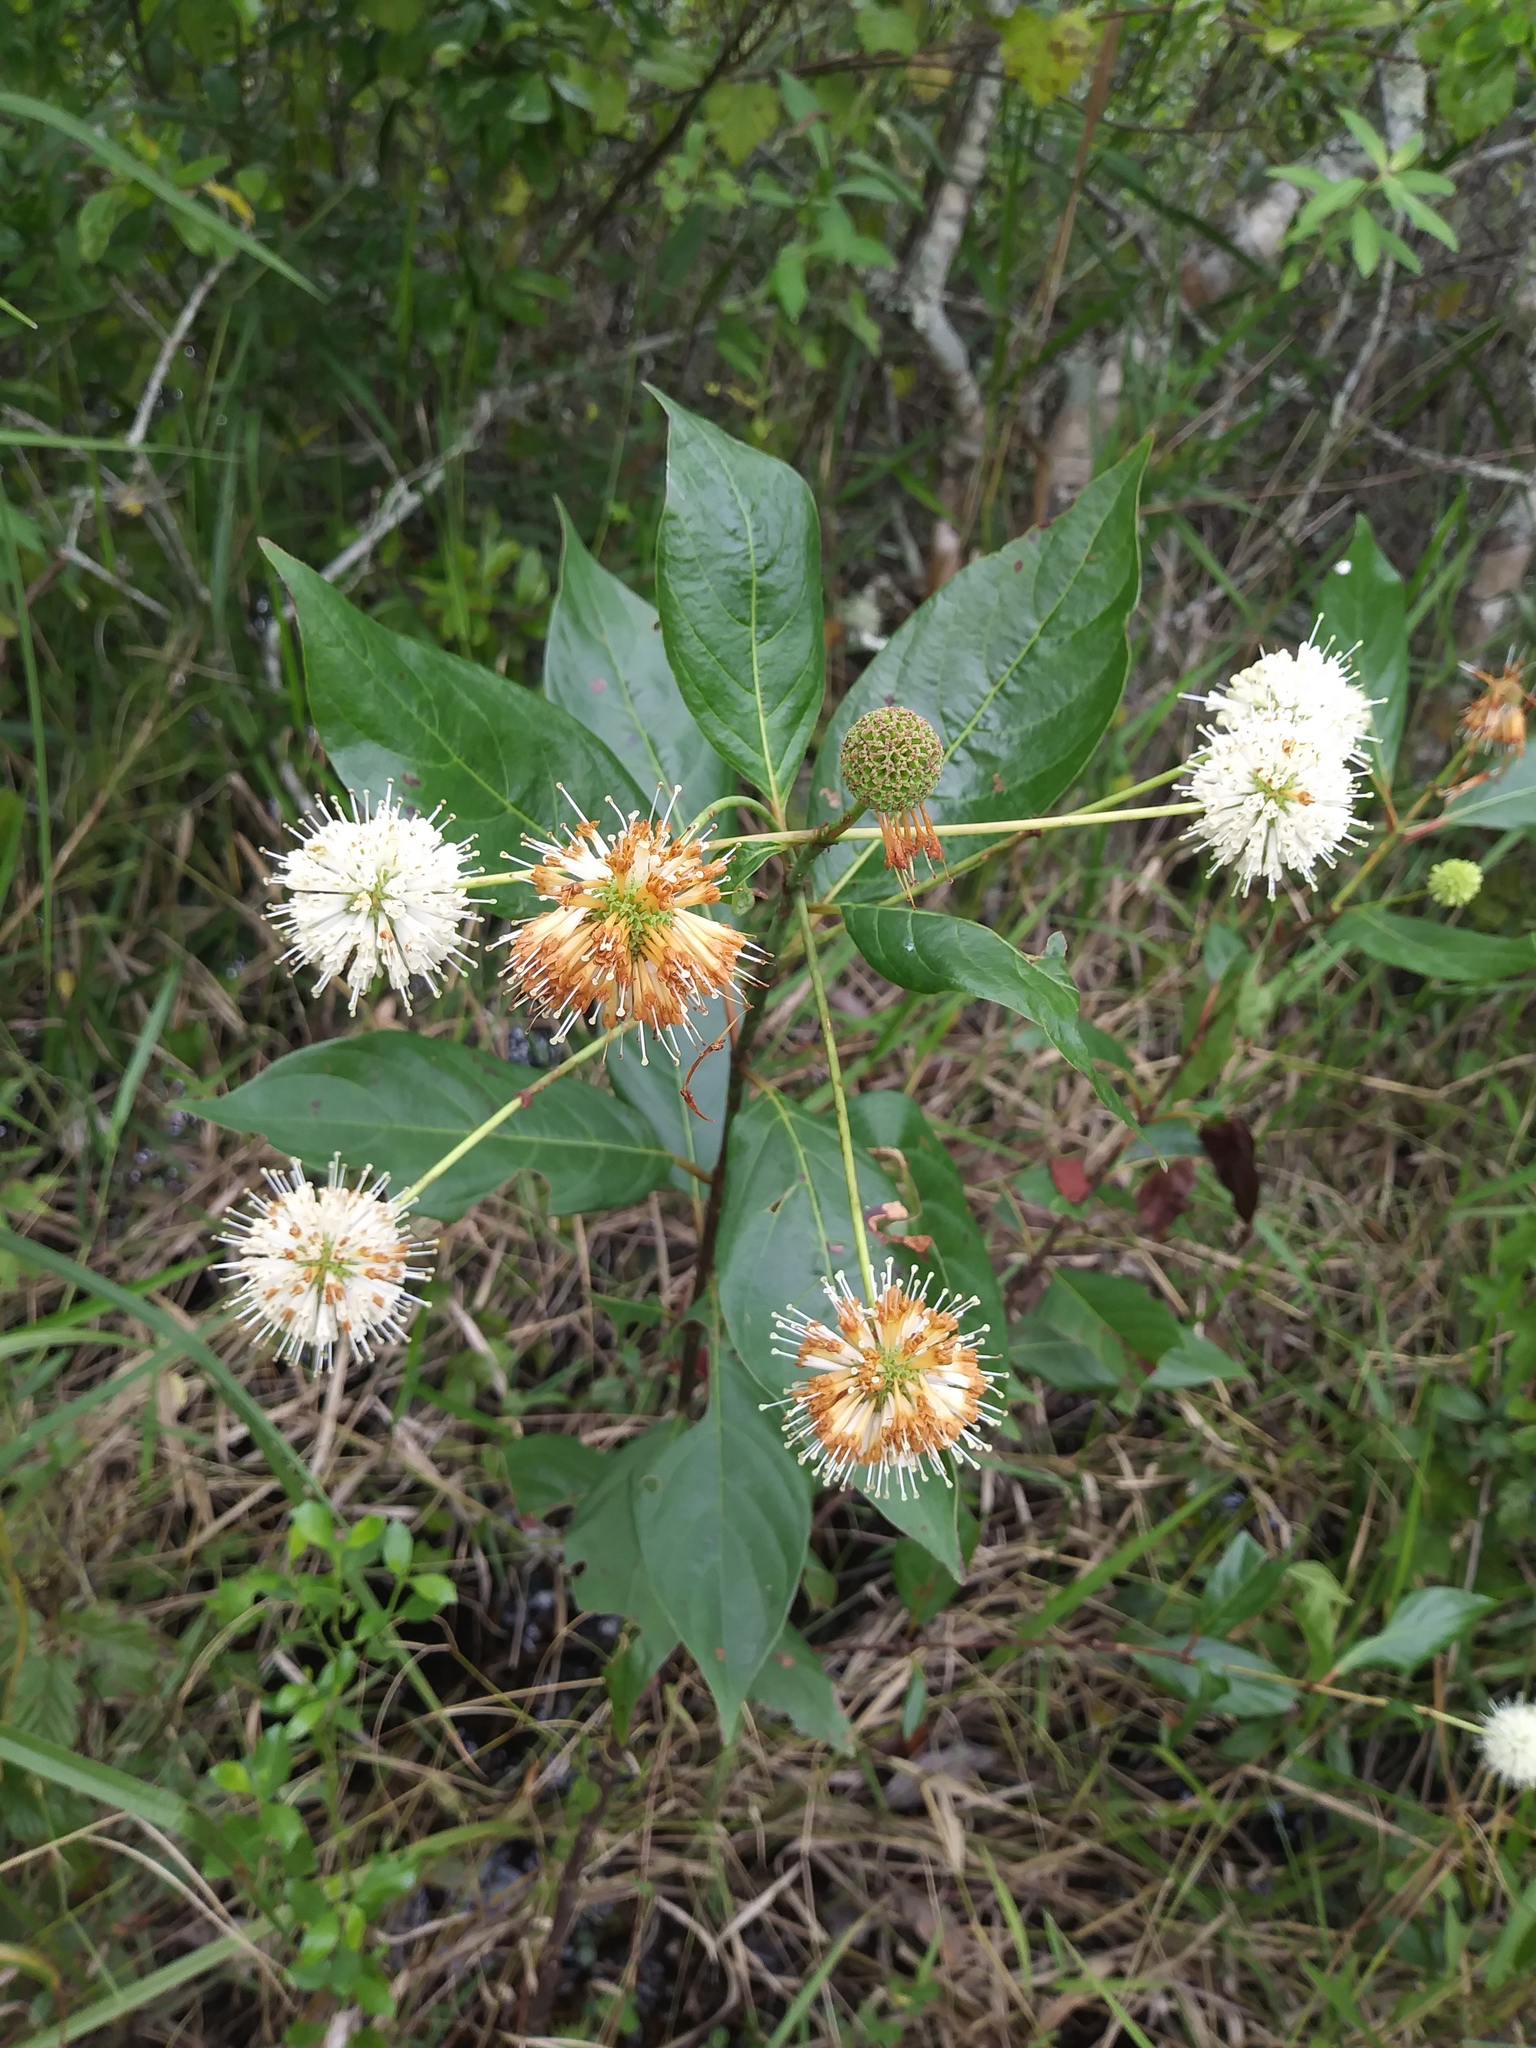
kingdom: Plantae
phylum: Tracheophyta
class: Magnoliopsida
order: Gentianales
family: Rubiaceae
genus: Cephalanthus
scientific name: Cephalanthus occidentalis
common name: Button-willow
